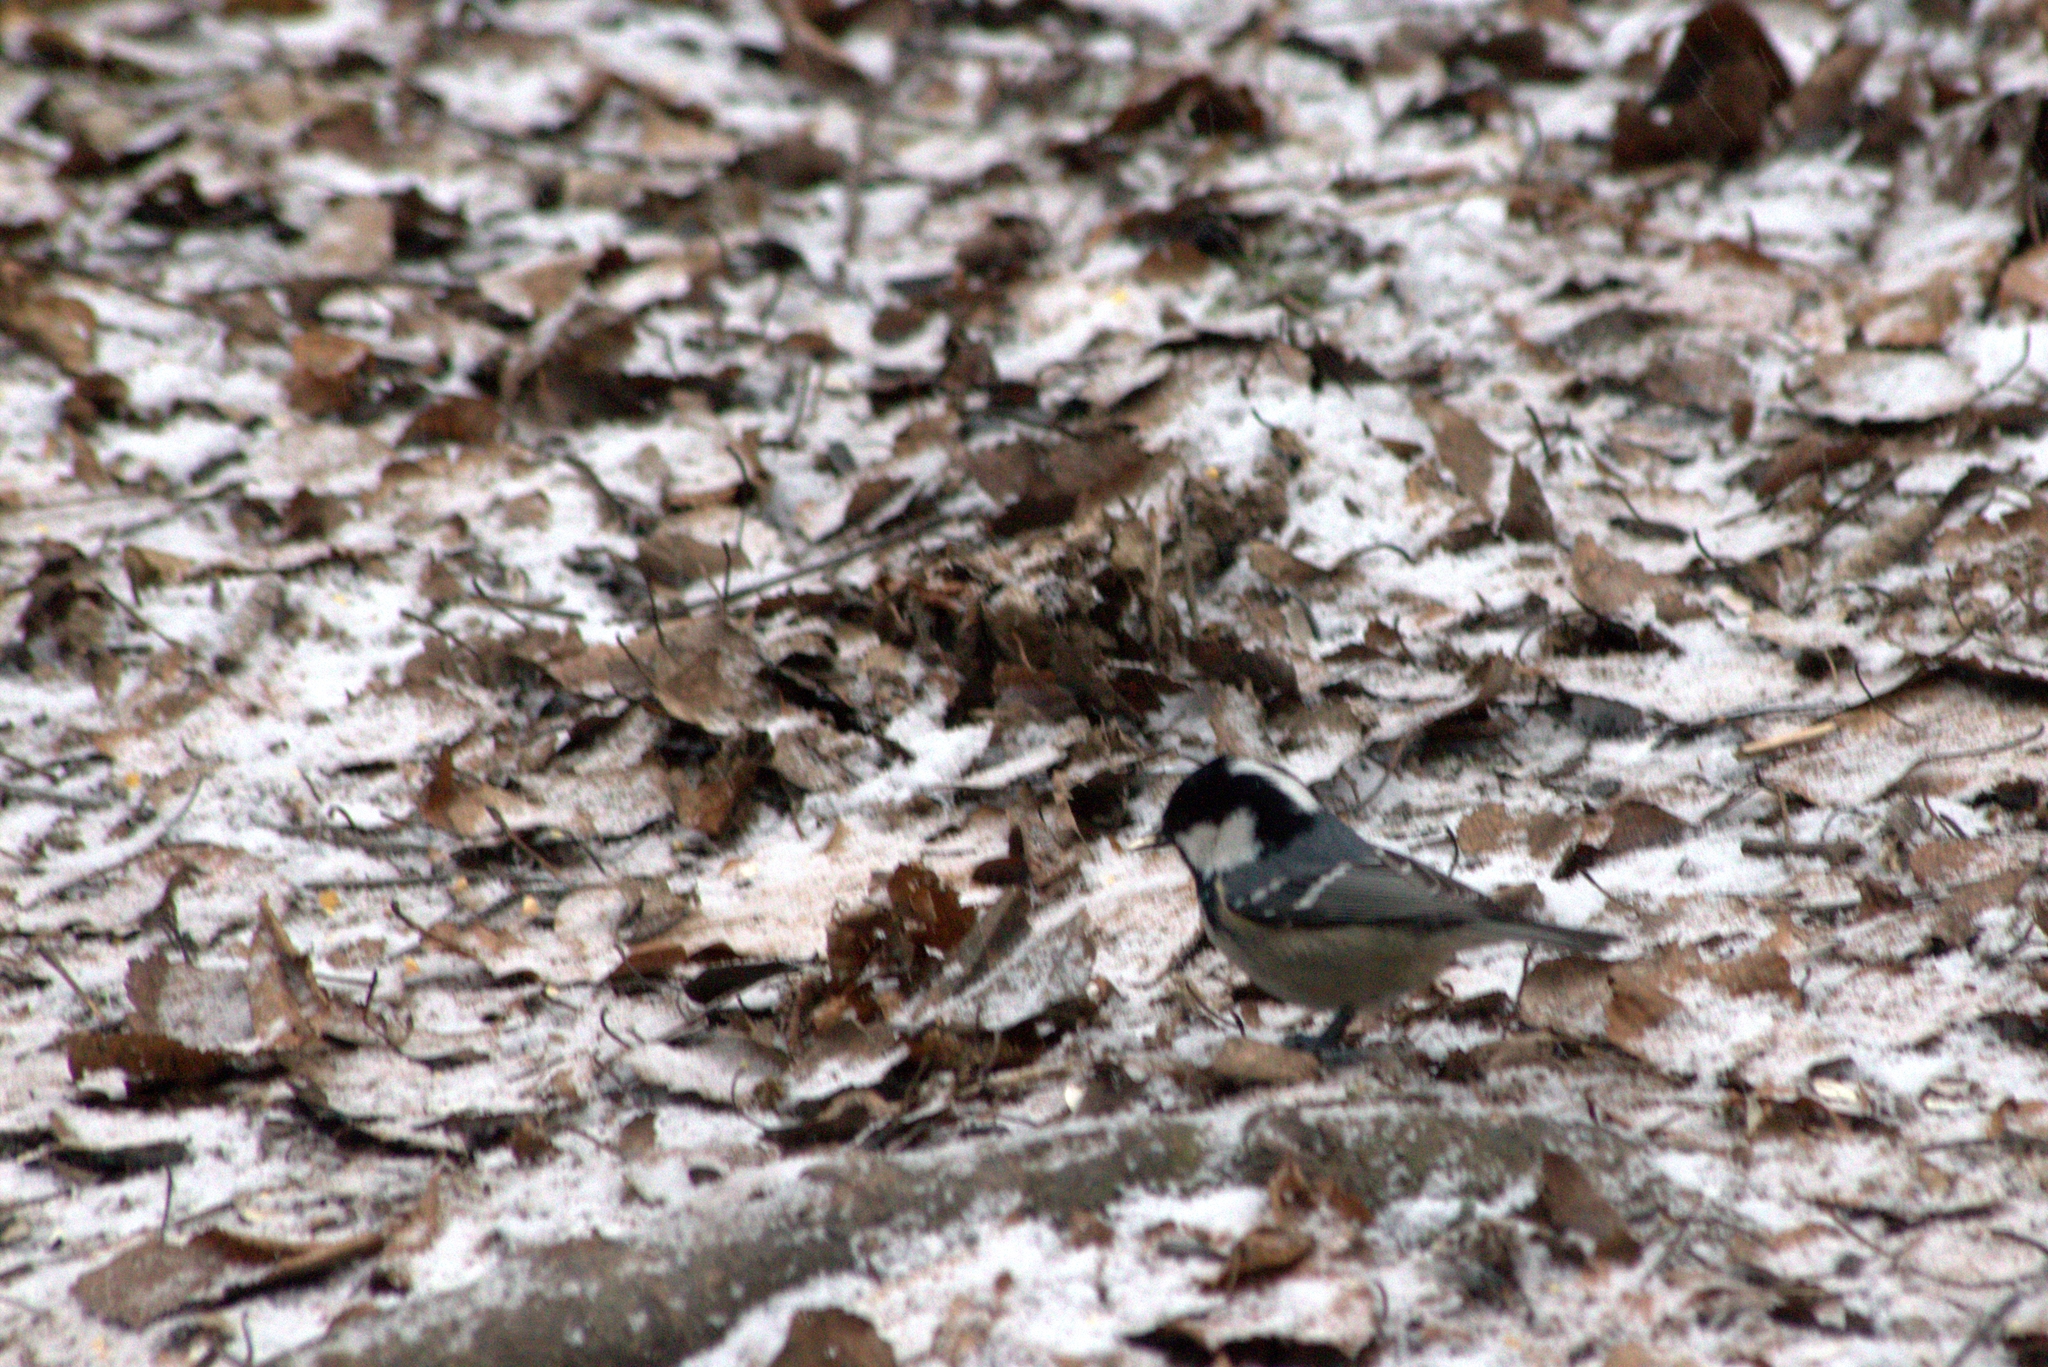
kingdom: Animalia
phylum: Chordata
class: Aves
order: Passeriformes
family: Paridae
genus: Periparus
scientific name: Periparus ater
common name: Coal tit
